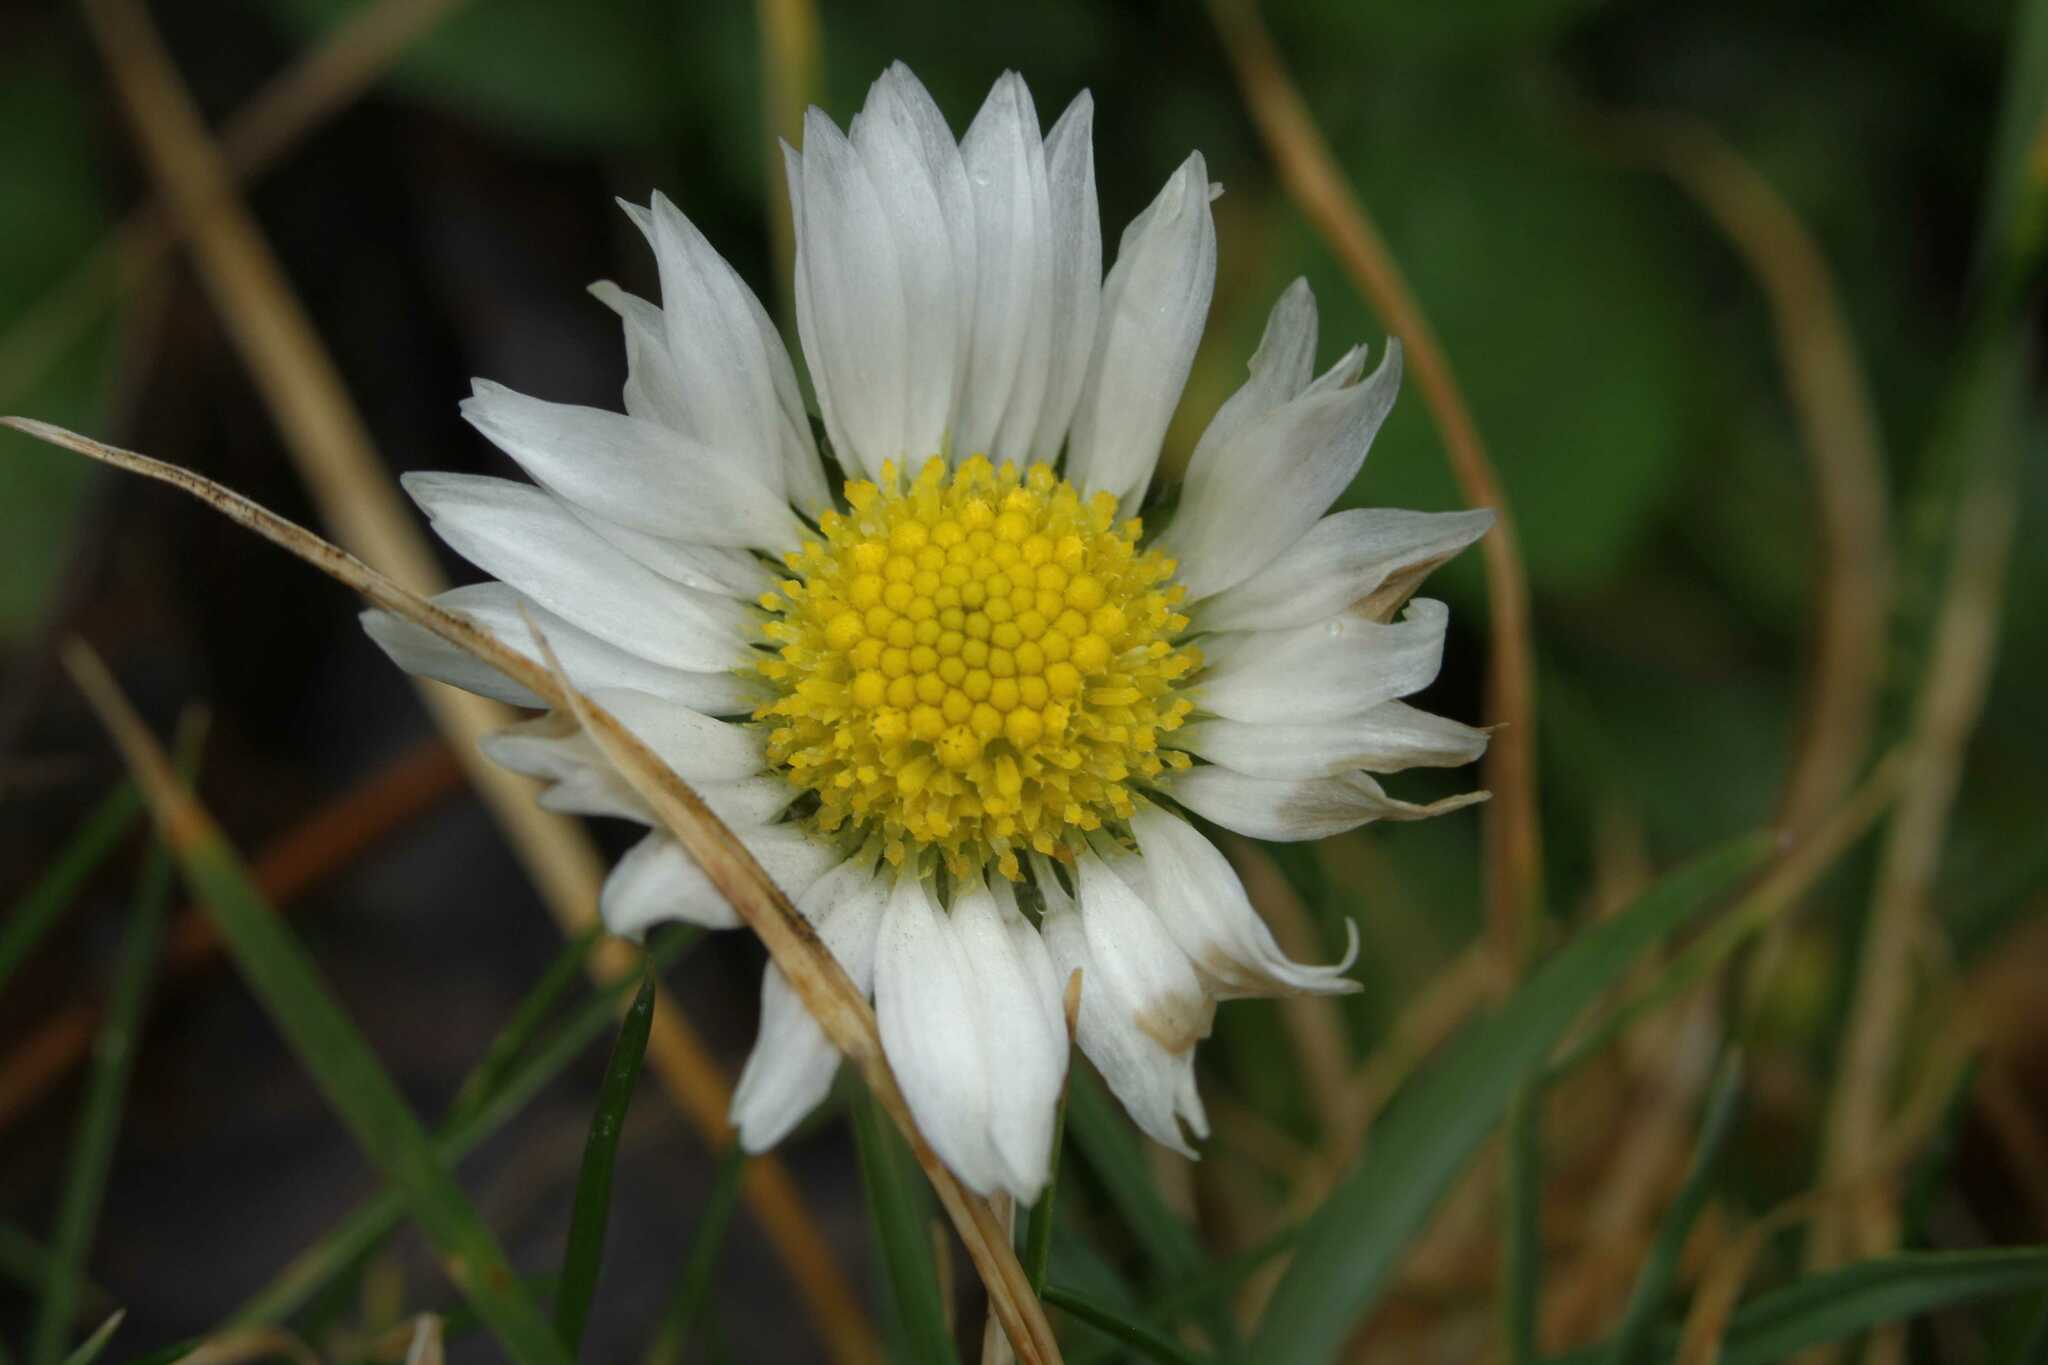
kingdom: Plantae
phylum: Tracheophyta
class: Magnoliopsida
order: Asterales
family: Asteraceae
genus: Bellis
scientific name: Bellis perennis
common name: Lawndaisy
